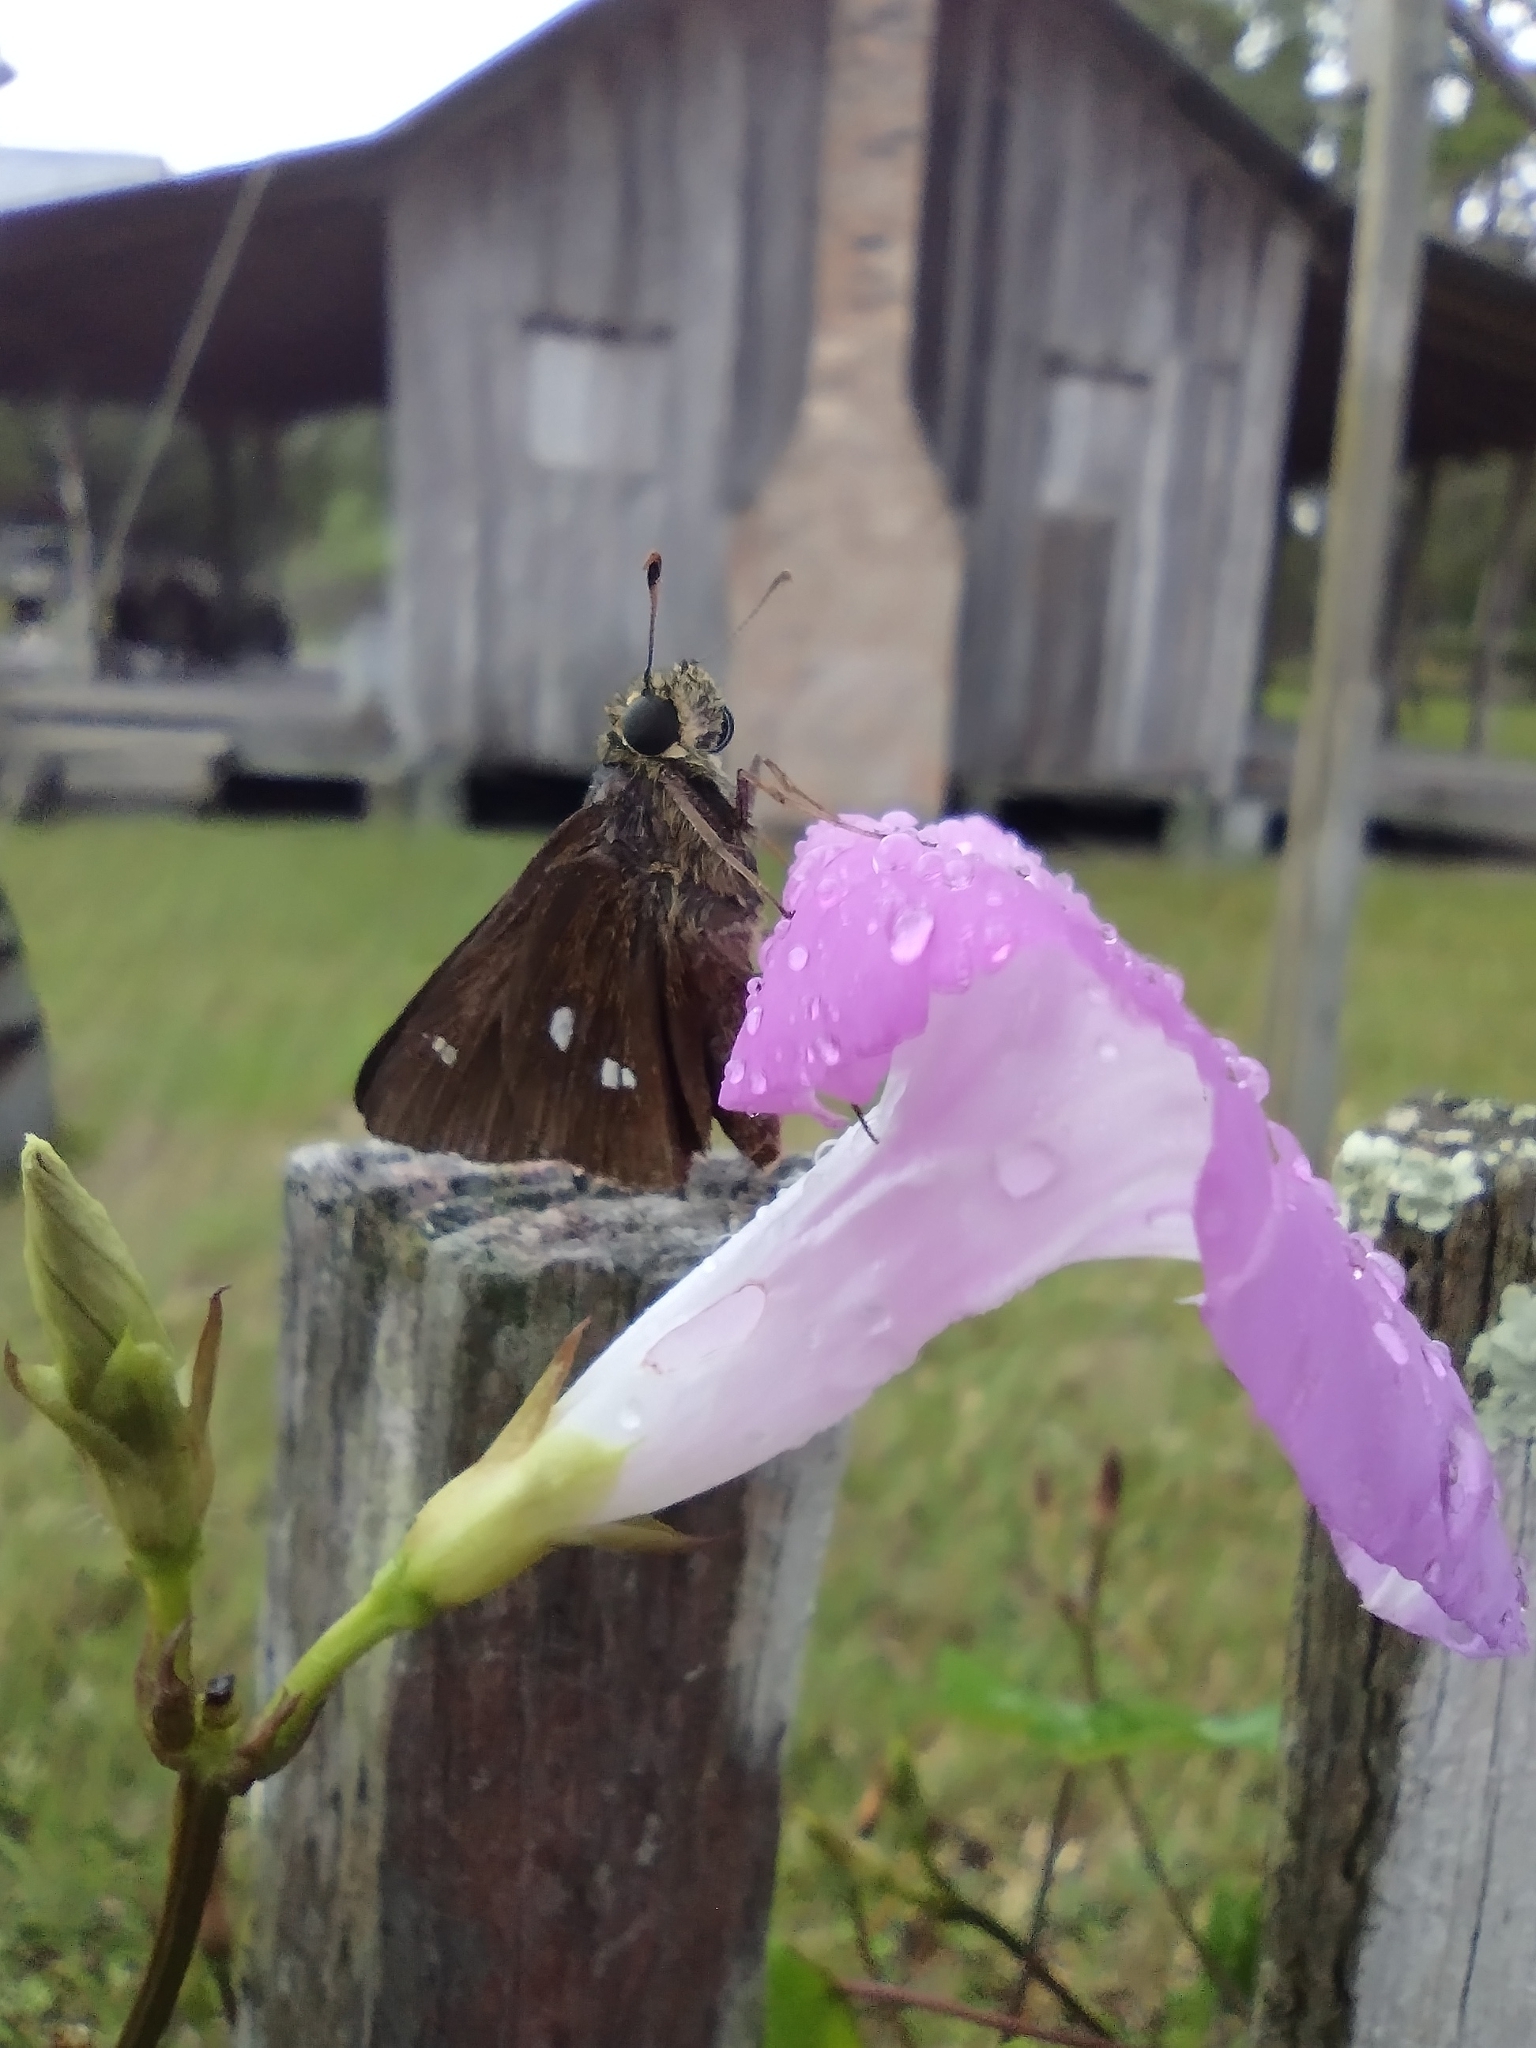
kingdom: Animalia
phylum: Arthropoda
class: Insecta
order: Lepidoptera
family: Hesperiidae
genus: Oligoria
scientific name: Oligoria maculata
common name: Twin-spot skipper
